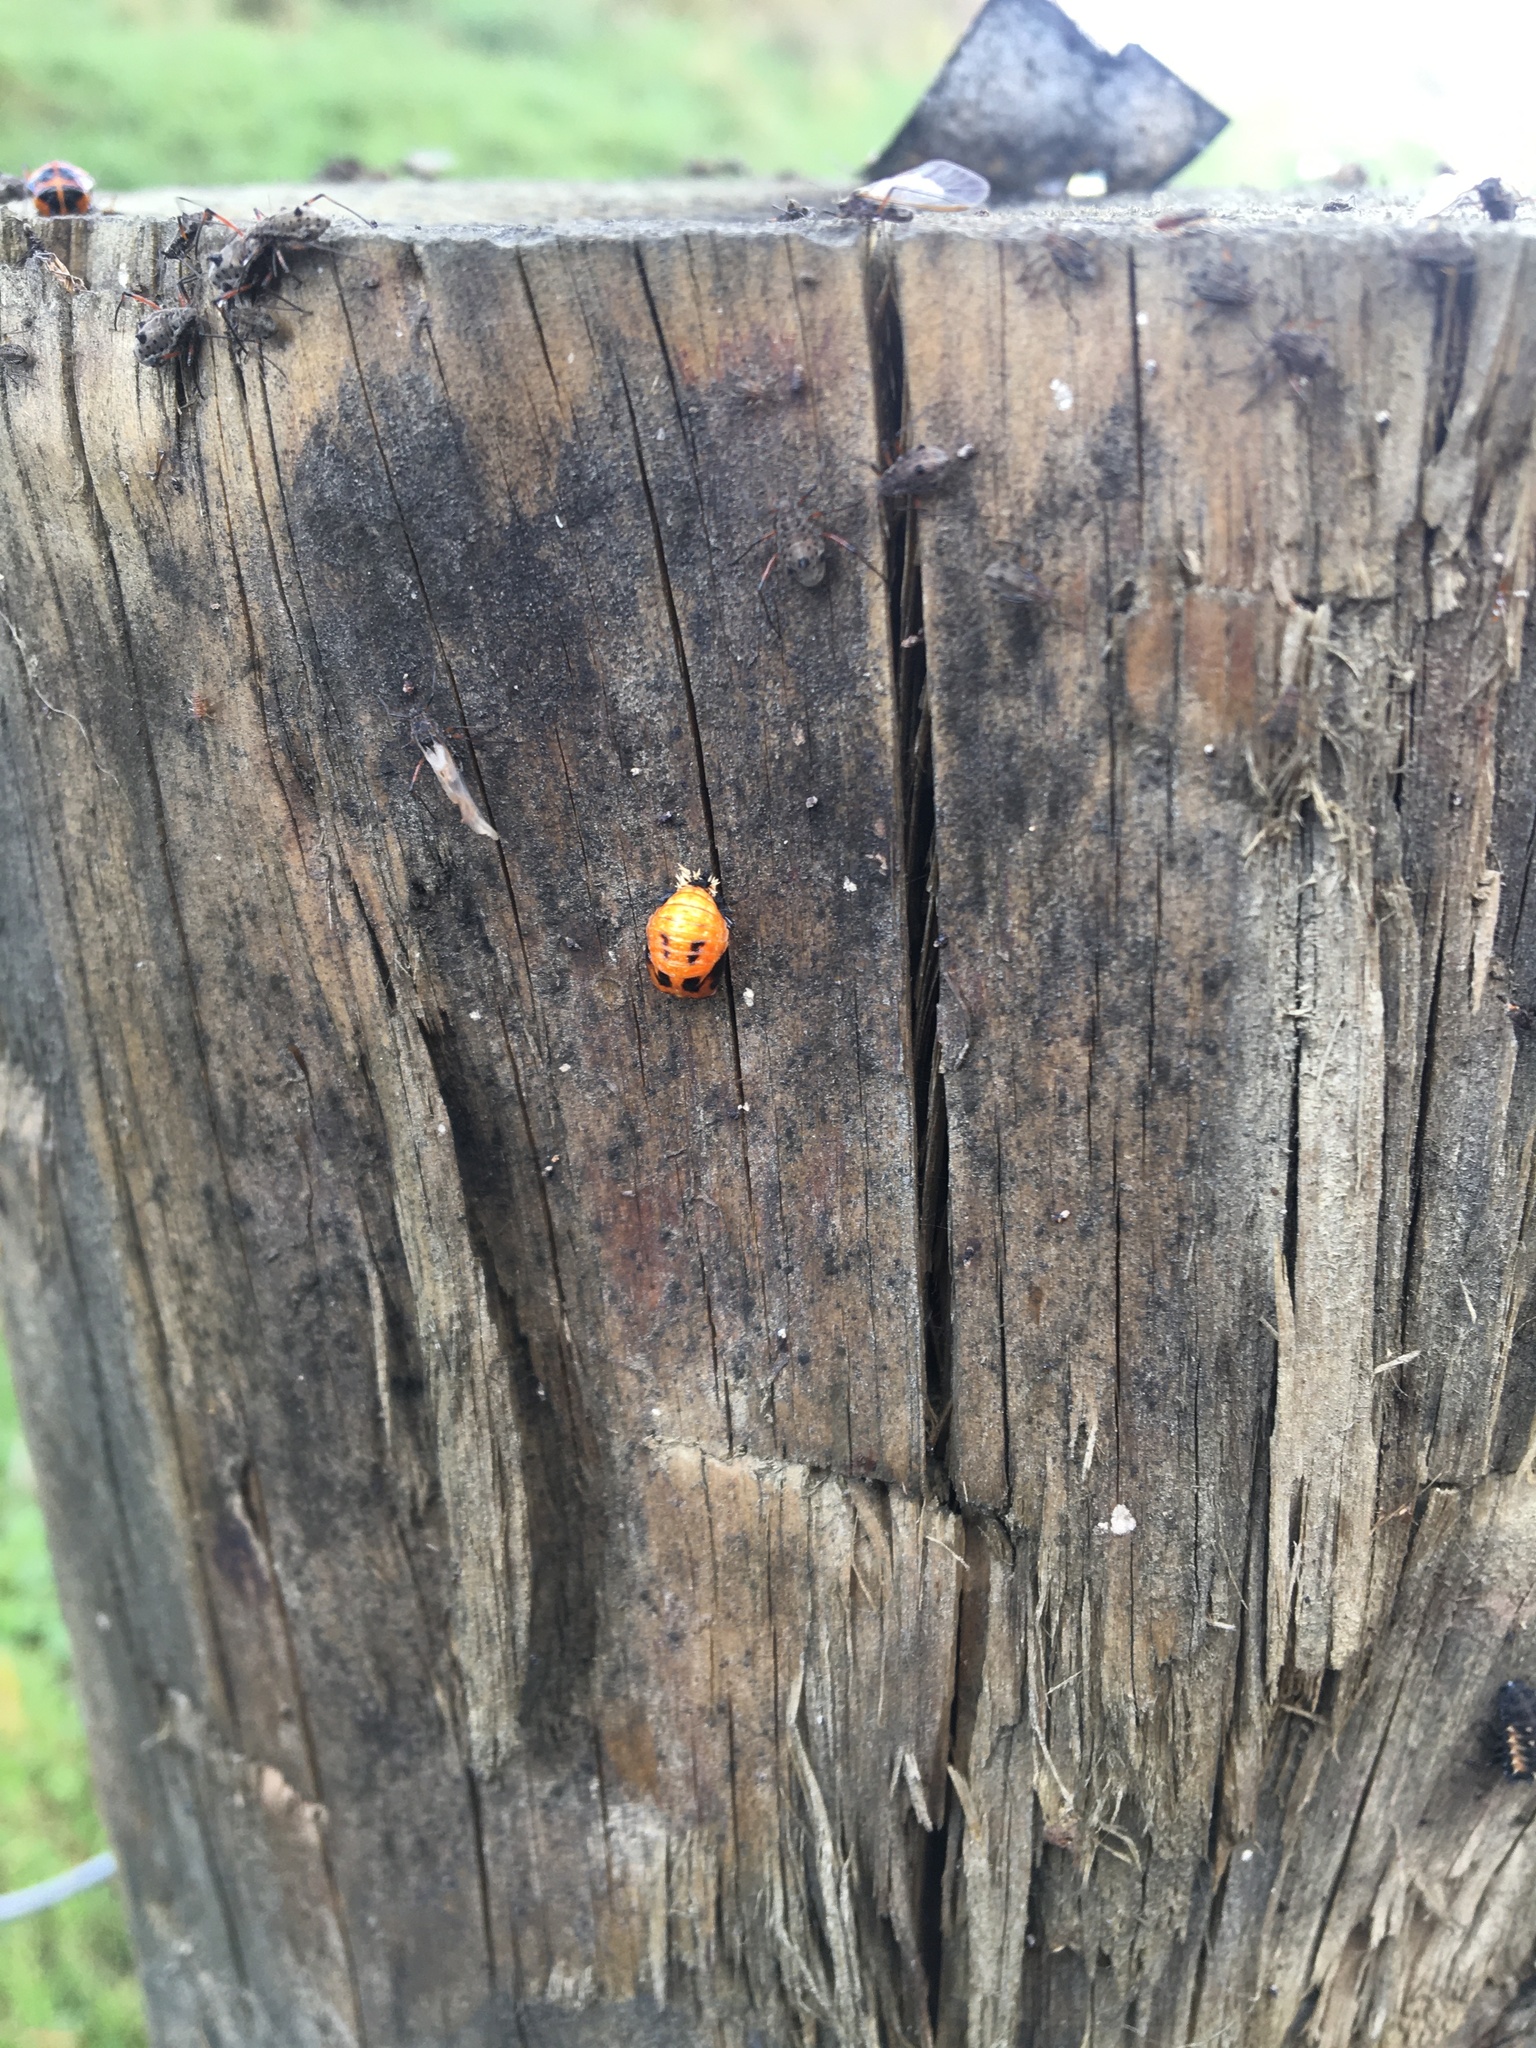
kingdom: Animalia
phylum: Arthropoda
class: Insecta
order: Coleoptera
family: Coccinellidae
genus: Harmonia
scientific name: Harmonia axyridis
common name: Harlequin ladybird
